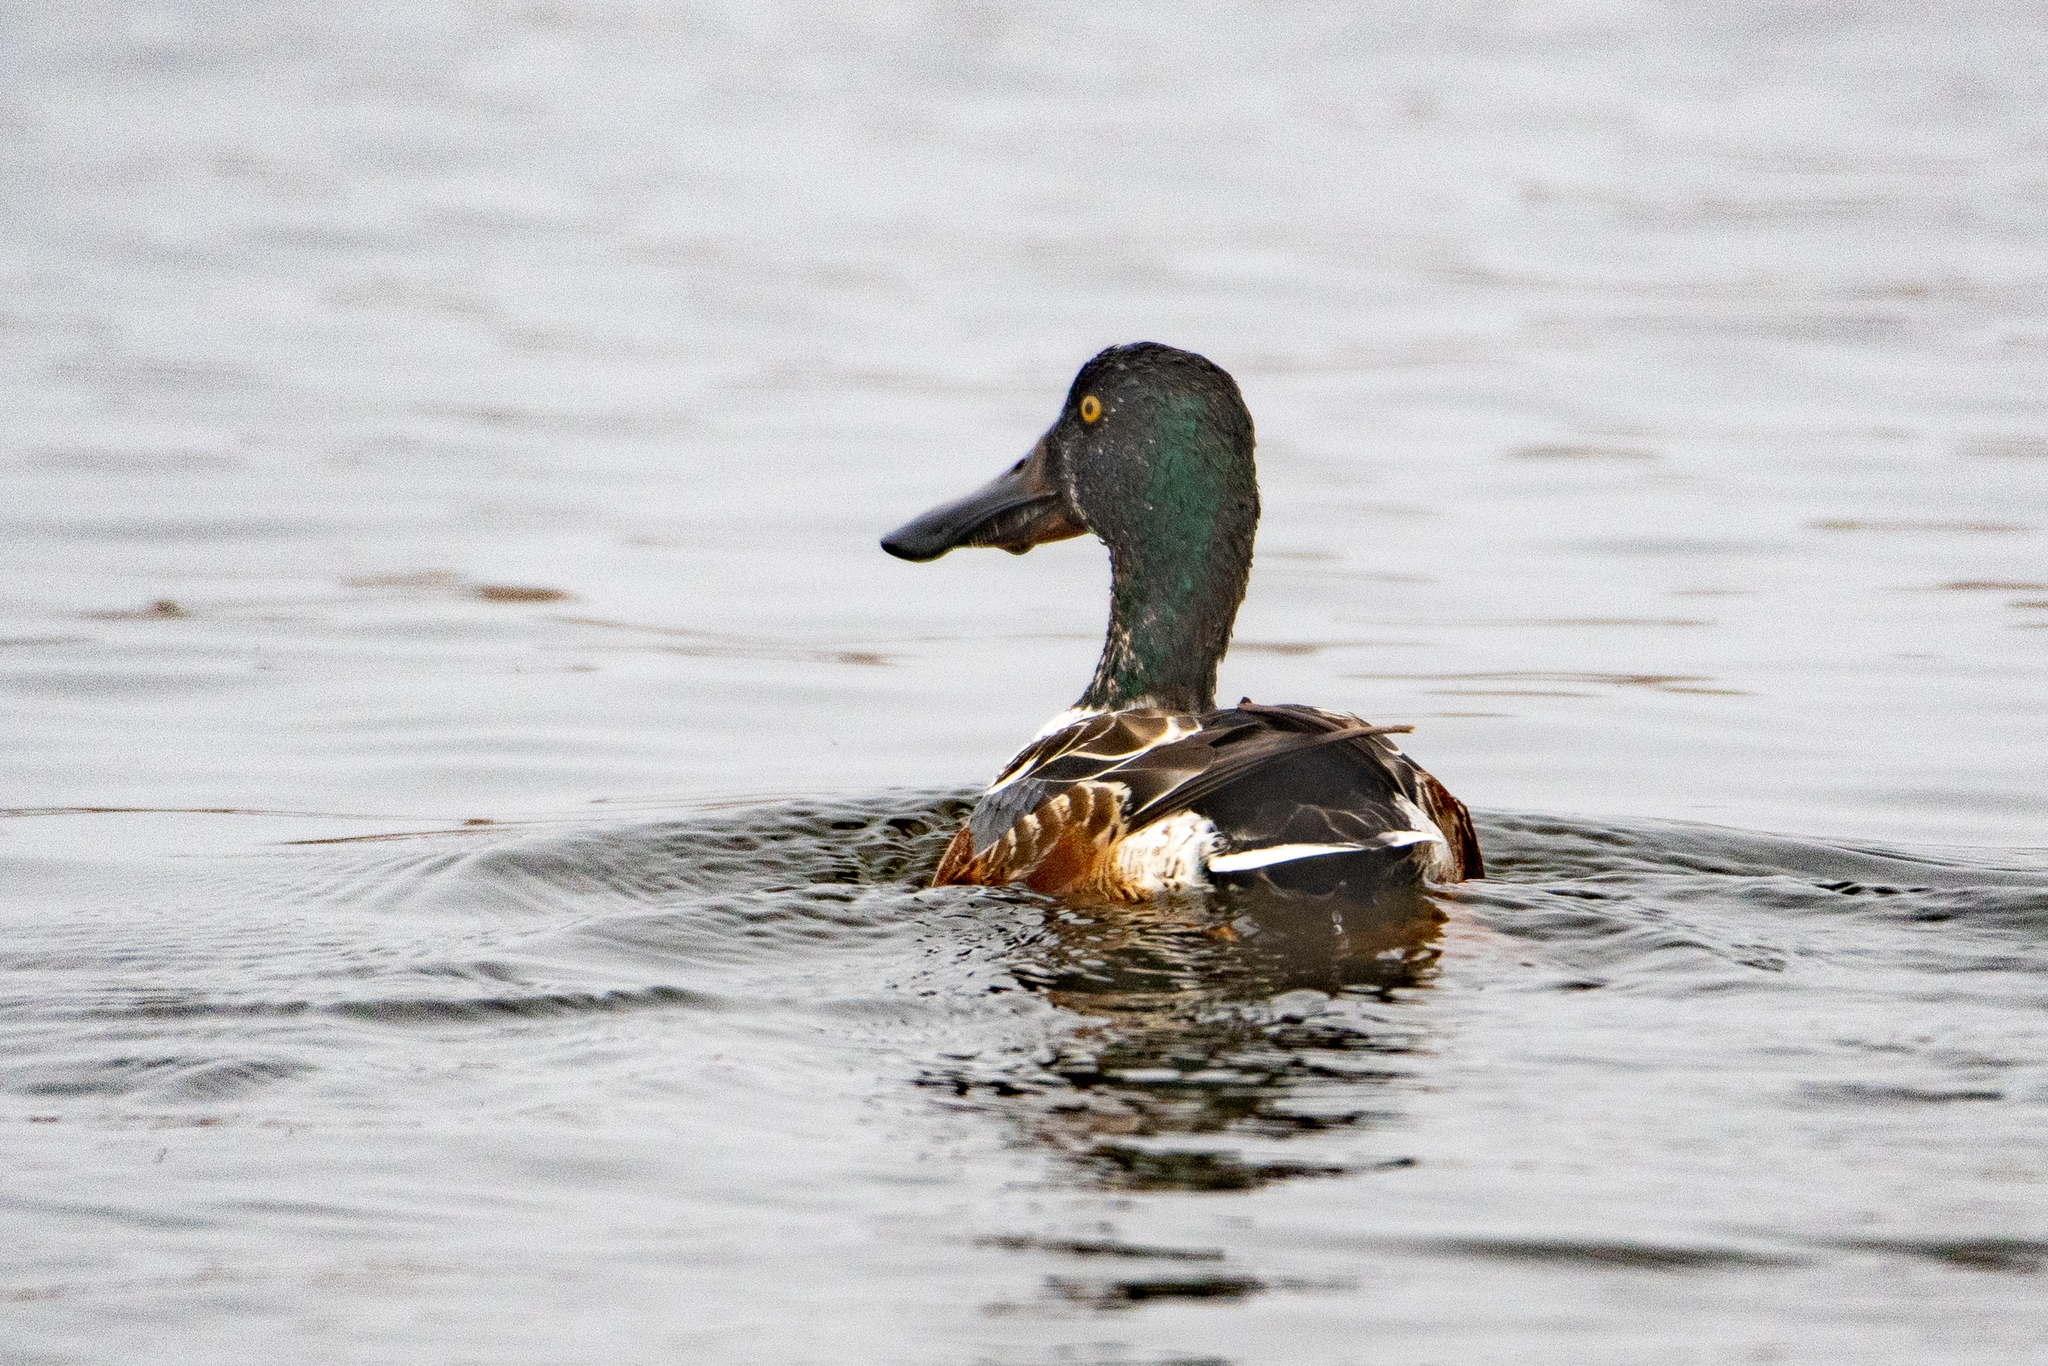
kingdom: Animalia
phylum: Chordata
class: Aves
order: Anseriformes
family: Anatidae
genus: Spatula
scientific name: Spatula clypeata
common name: Northern shoveler
